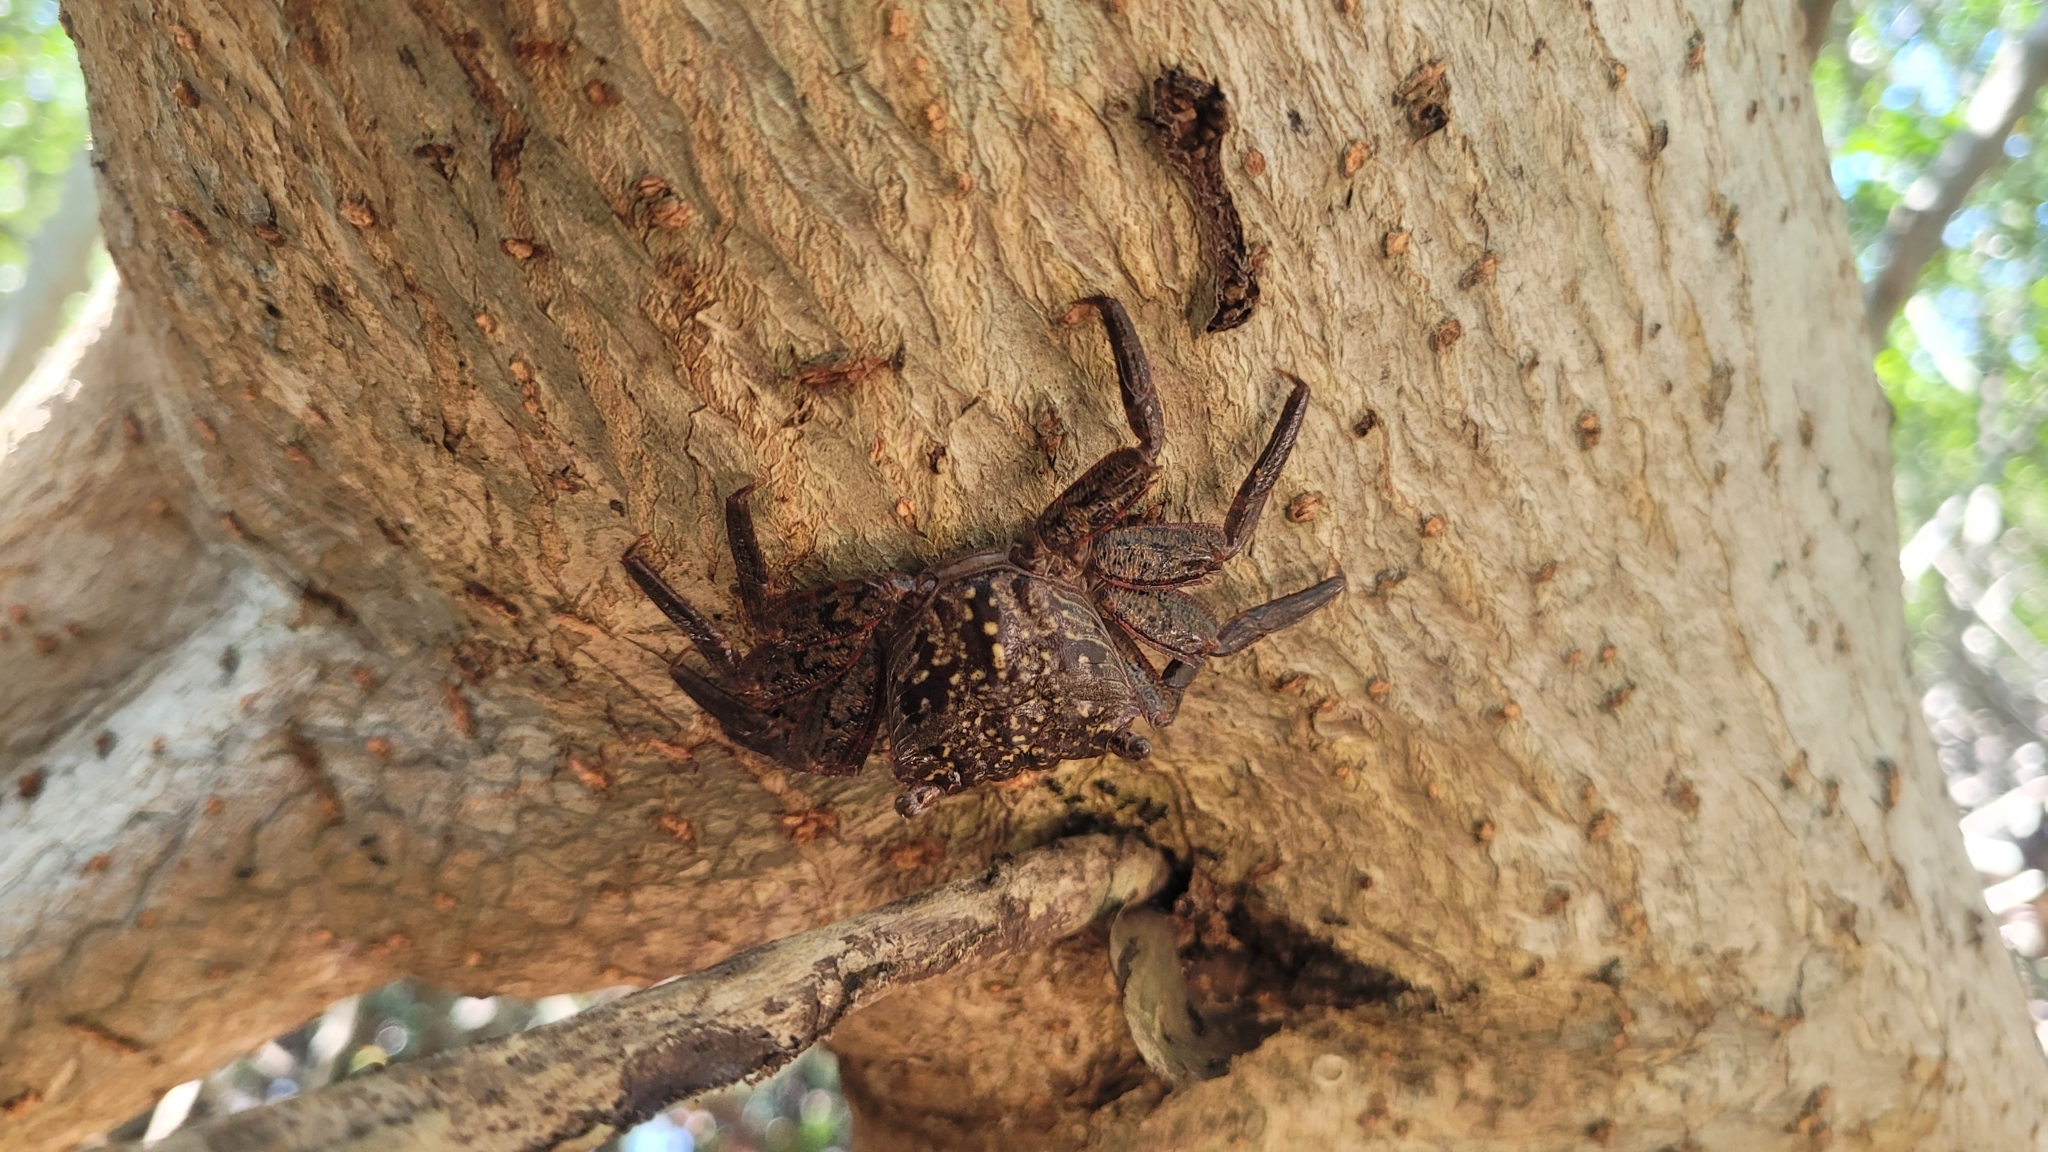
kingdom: Animalia
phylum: Arthropoda
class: Malacostraca
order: Decapoda
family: Sesarmidae
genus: Aratus
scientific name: Aratus pisonii
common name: Mangrove crab
